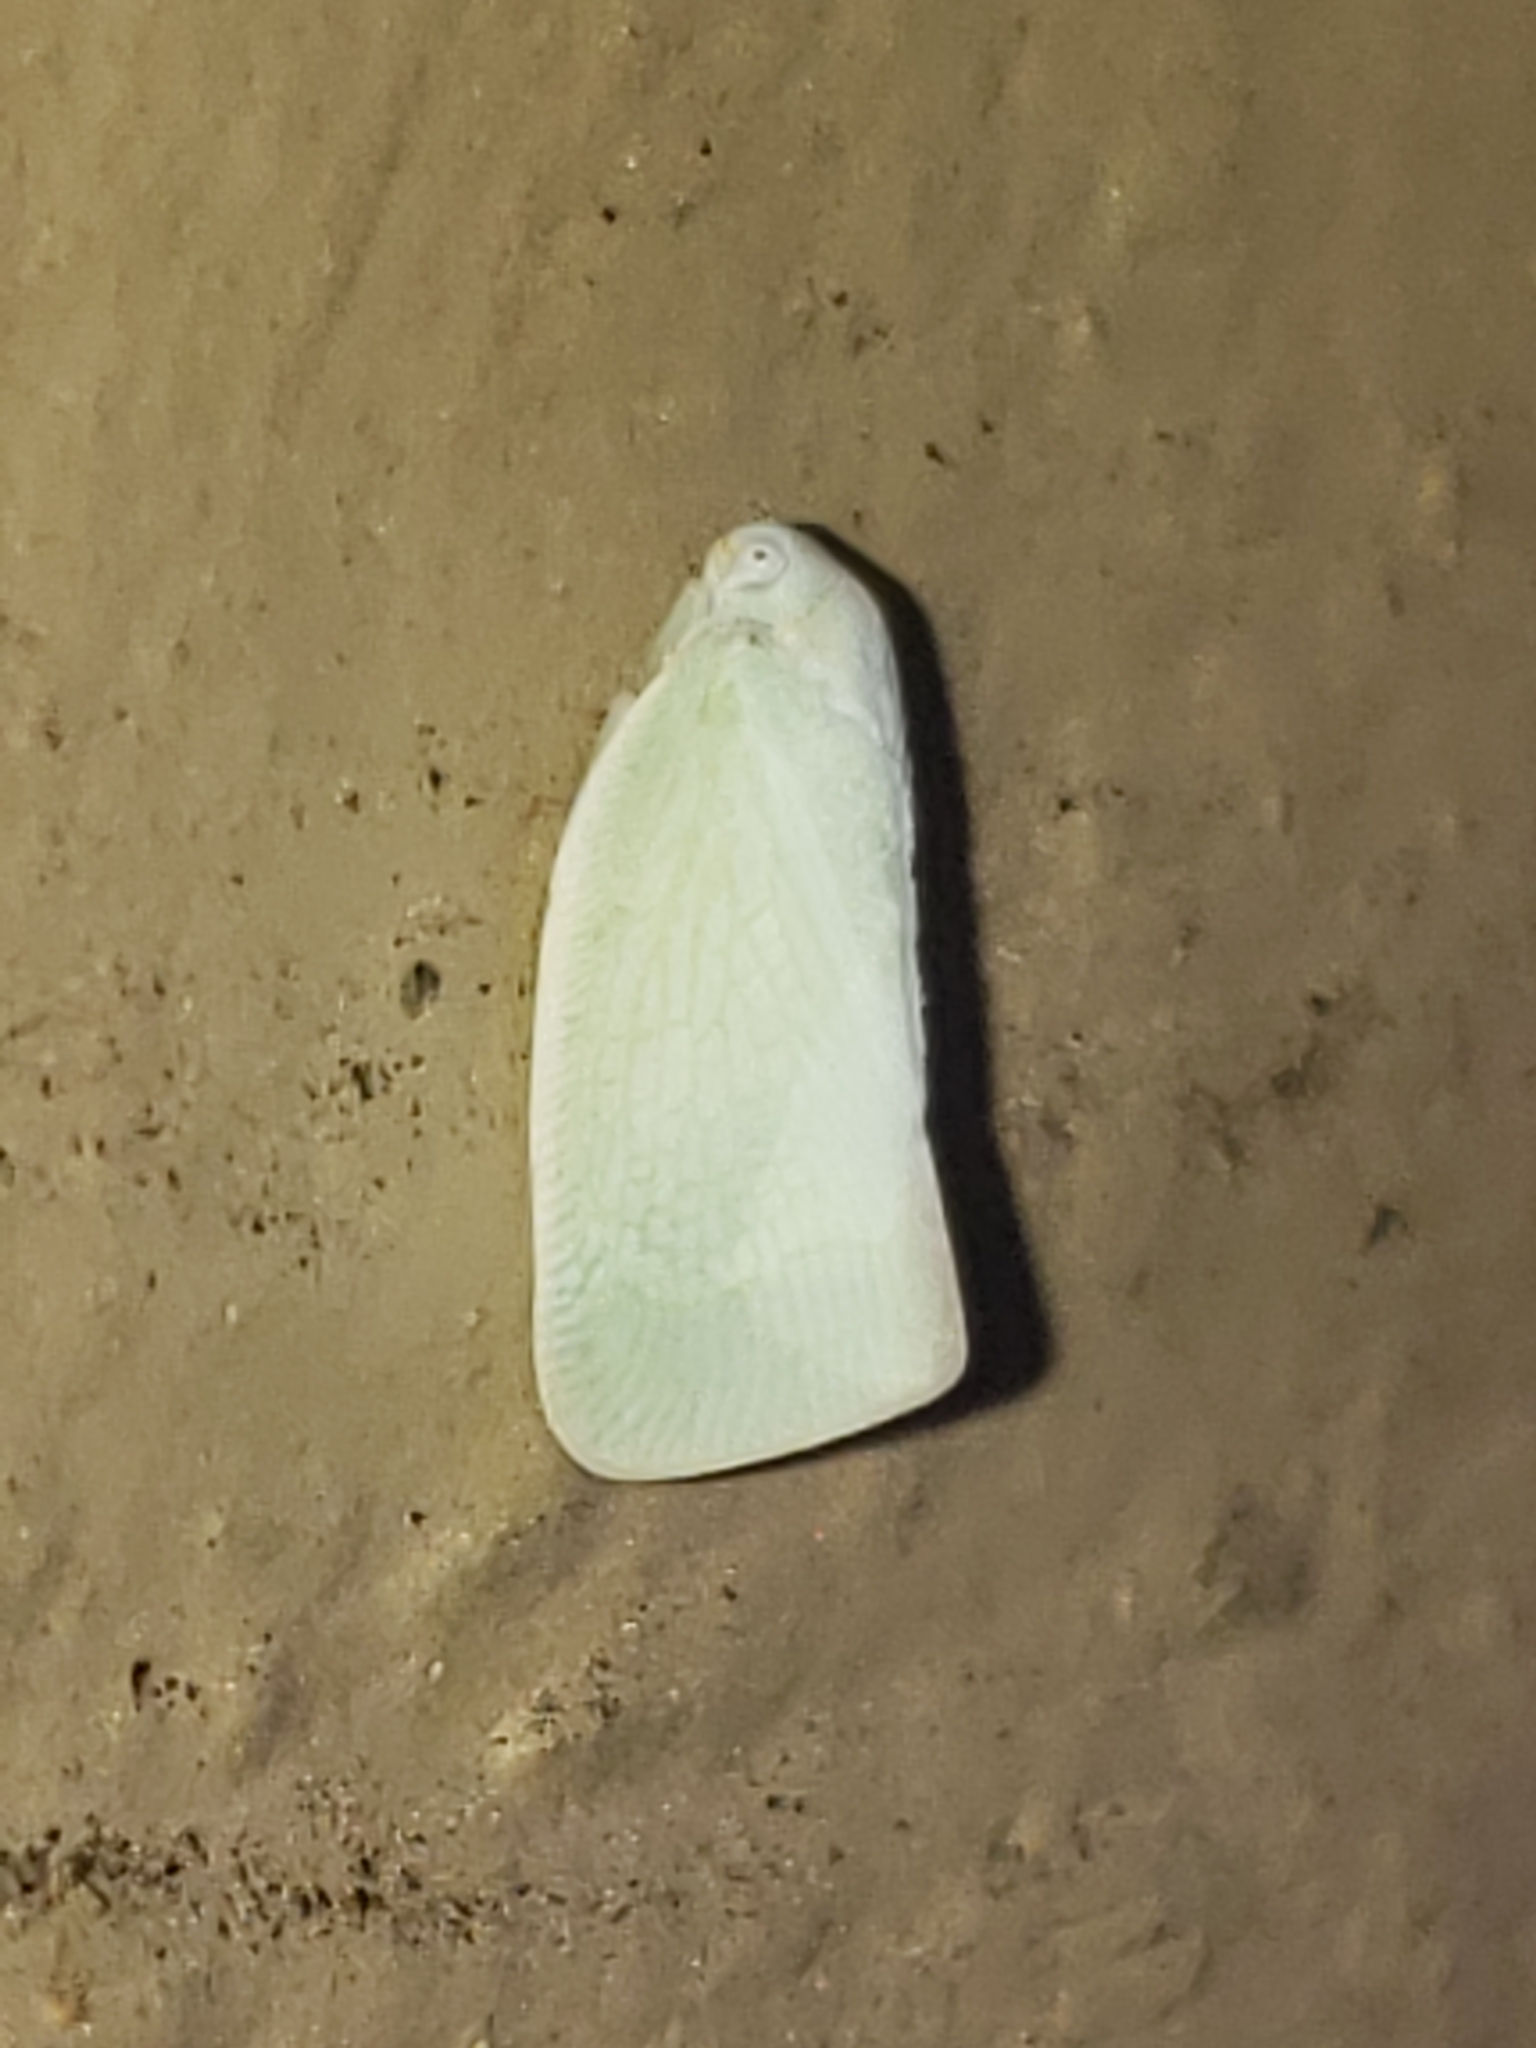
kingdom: Animalia
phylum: Arthropoda
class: Insecta
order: Hemiptera
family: Flatidae
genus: Flatormenis
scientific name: Flatormenis proxima
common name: Northern flatid planthopper
